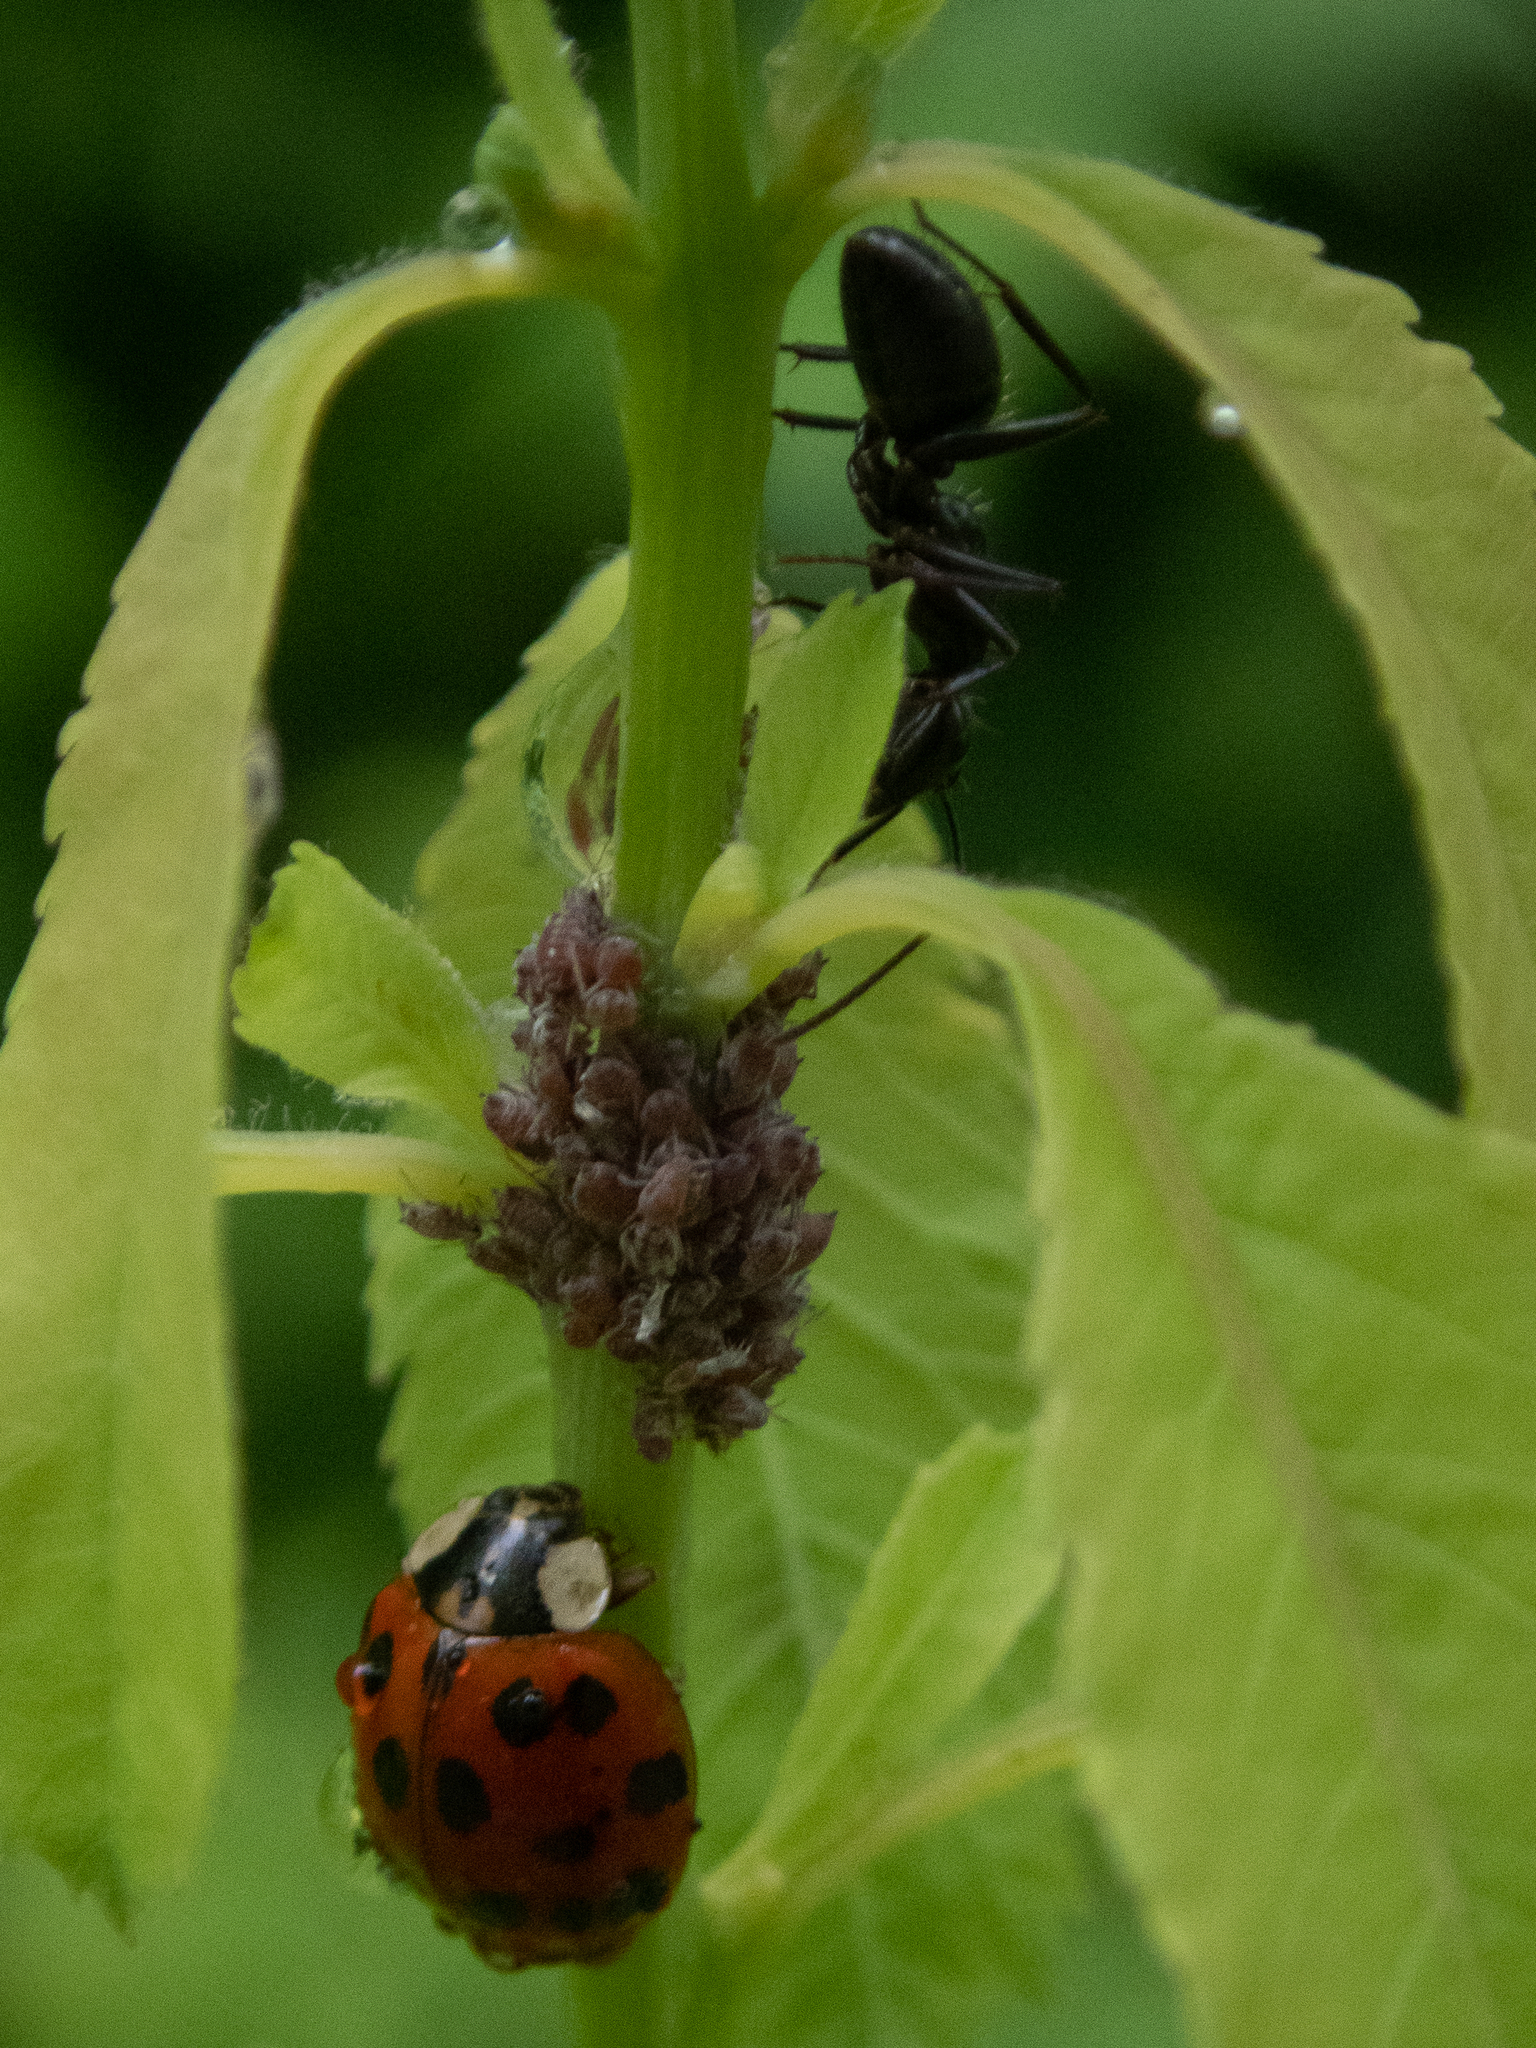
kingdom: Animalia
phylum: Arthropoda
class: Insecta
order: Coleoptera
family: Coccinellidae
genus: Harmonia
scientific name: Harmonia axyridis
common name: Harlequin ladybird
